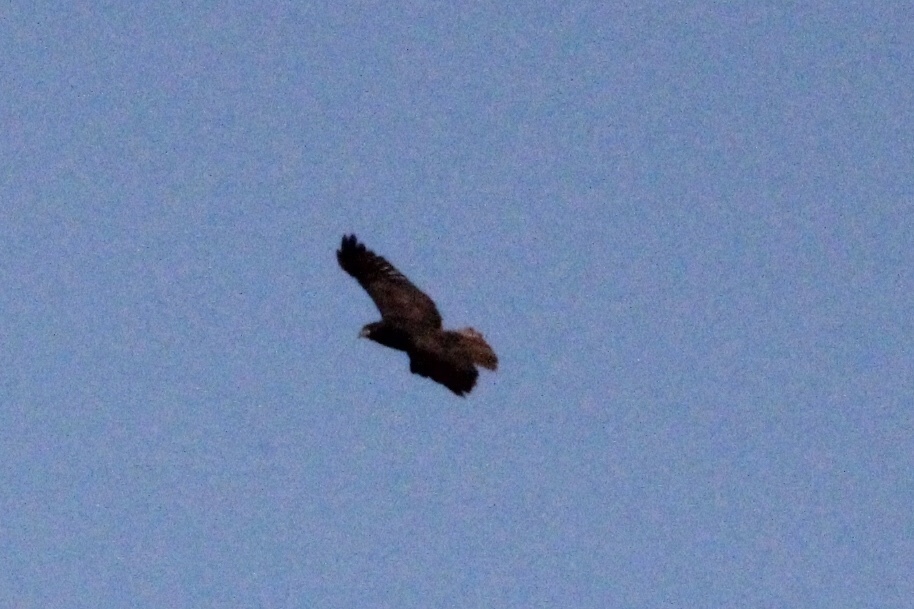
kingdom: Animalia
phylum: Chordata
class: Aves
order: Accipitriformes
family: Accipitridae
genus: Buteo
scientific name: Buteo jamaicensis
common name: Red-tailed hawk
